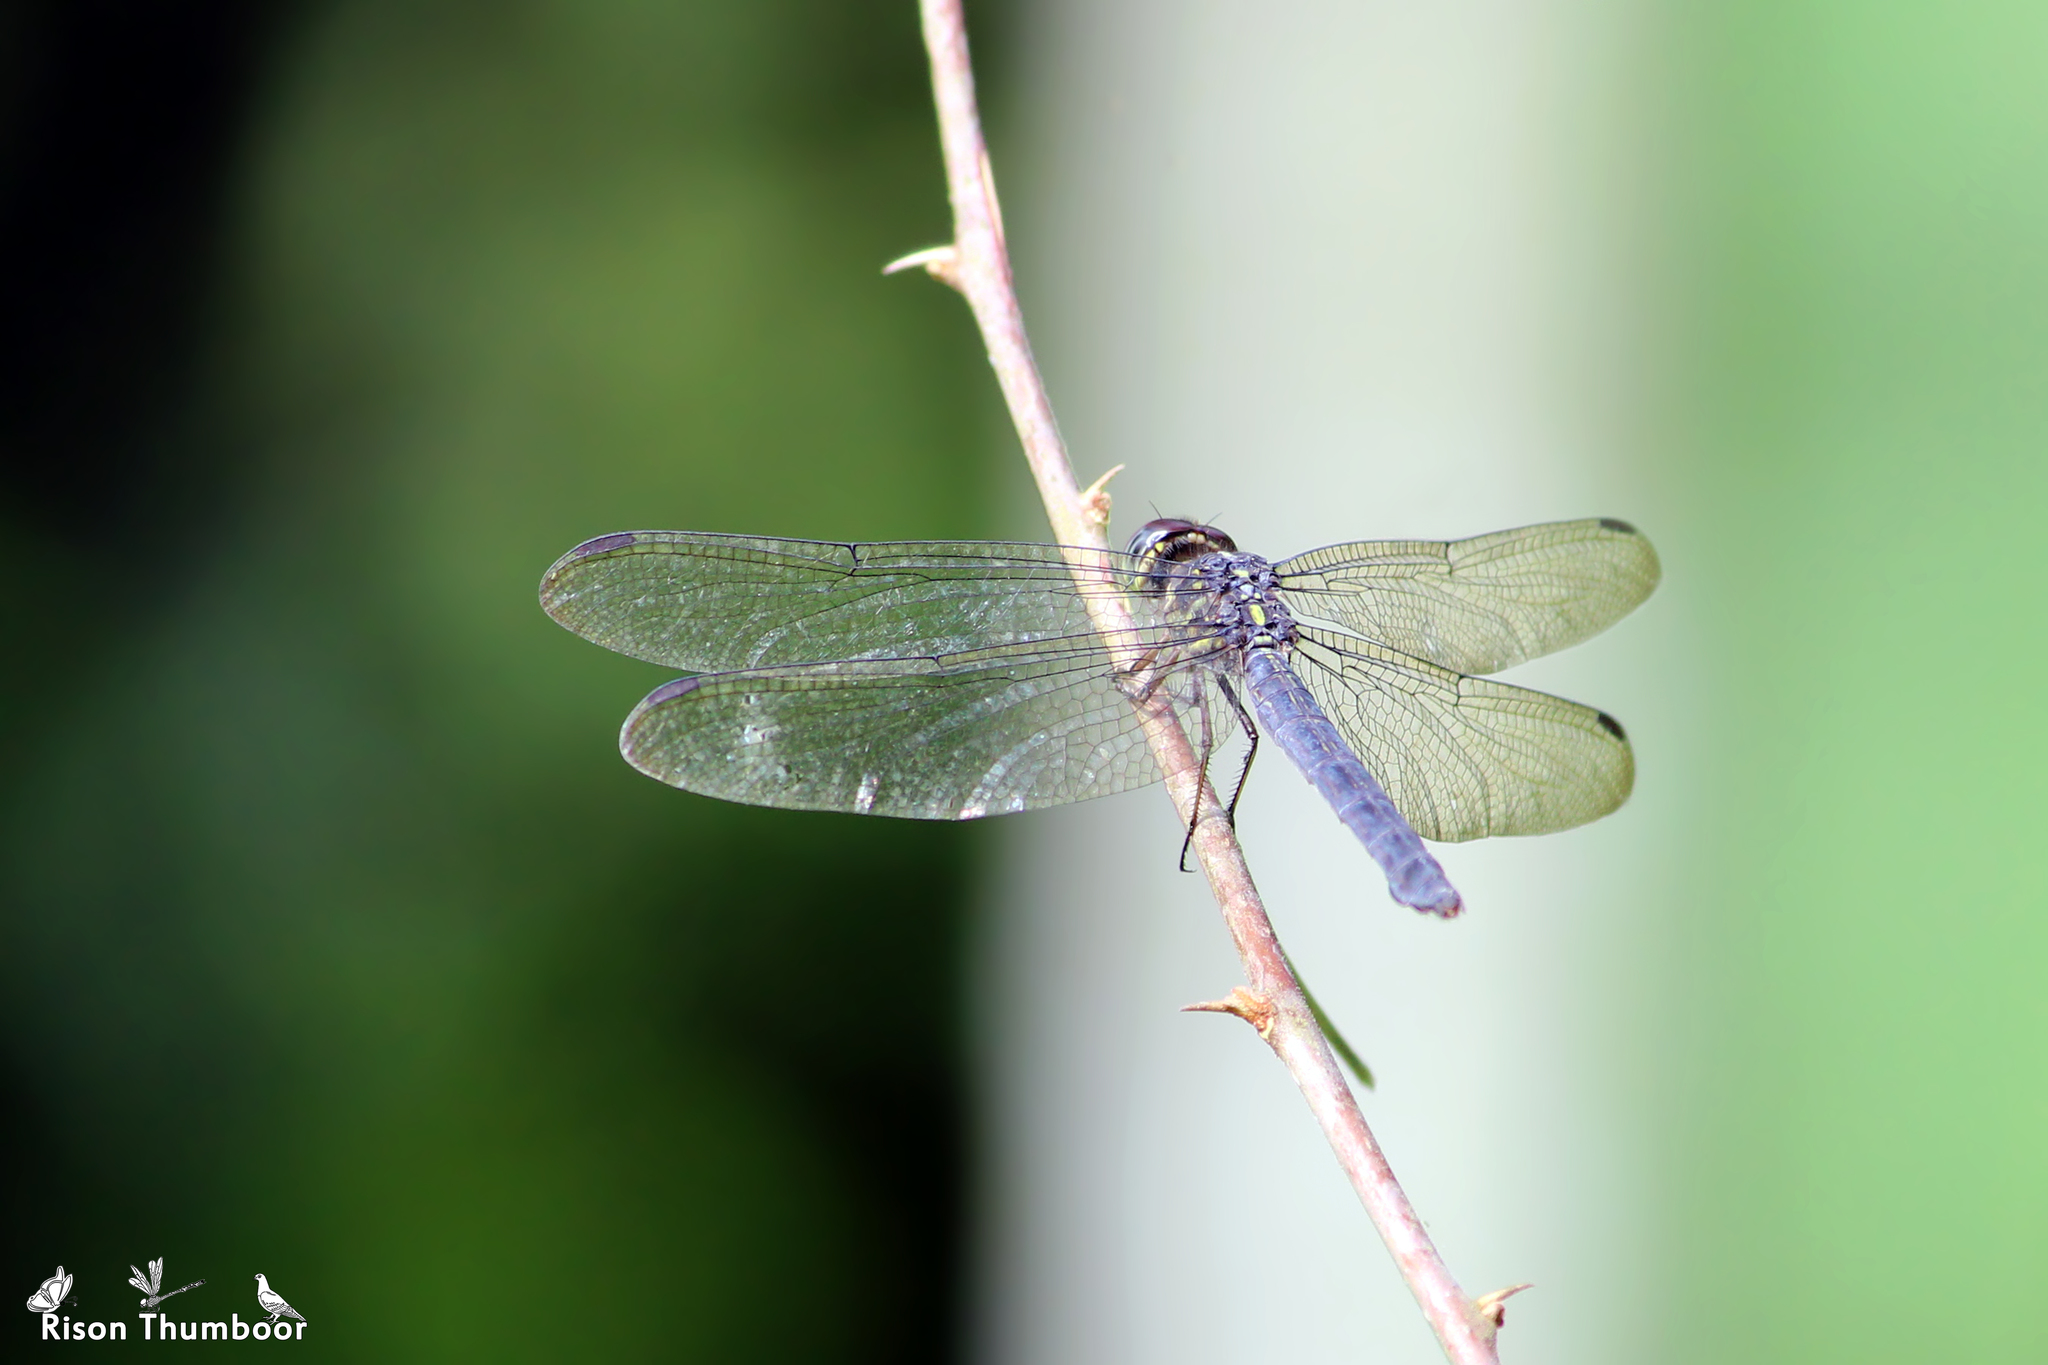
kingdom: Animalia
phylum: Arthropoda
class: Insecta
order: Odonata
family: Libellulidae
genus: Cratilla
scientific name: Cratilla lineata
